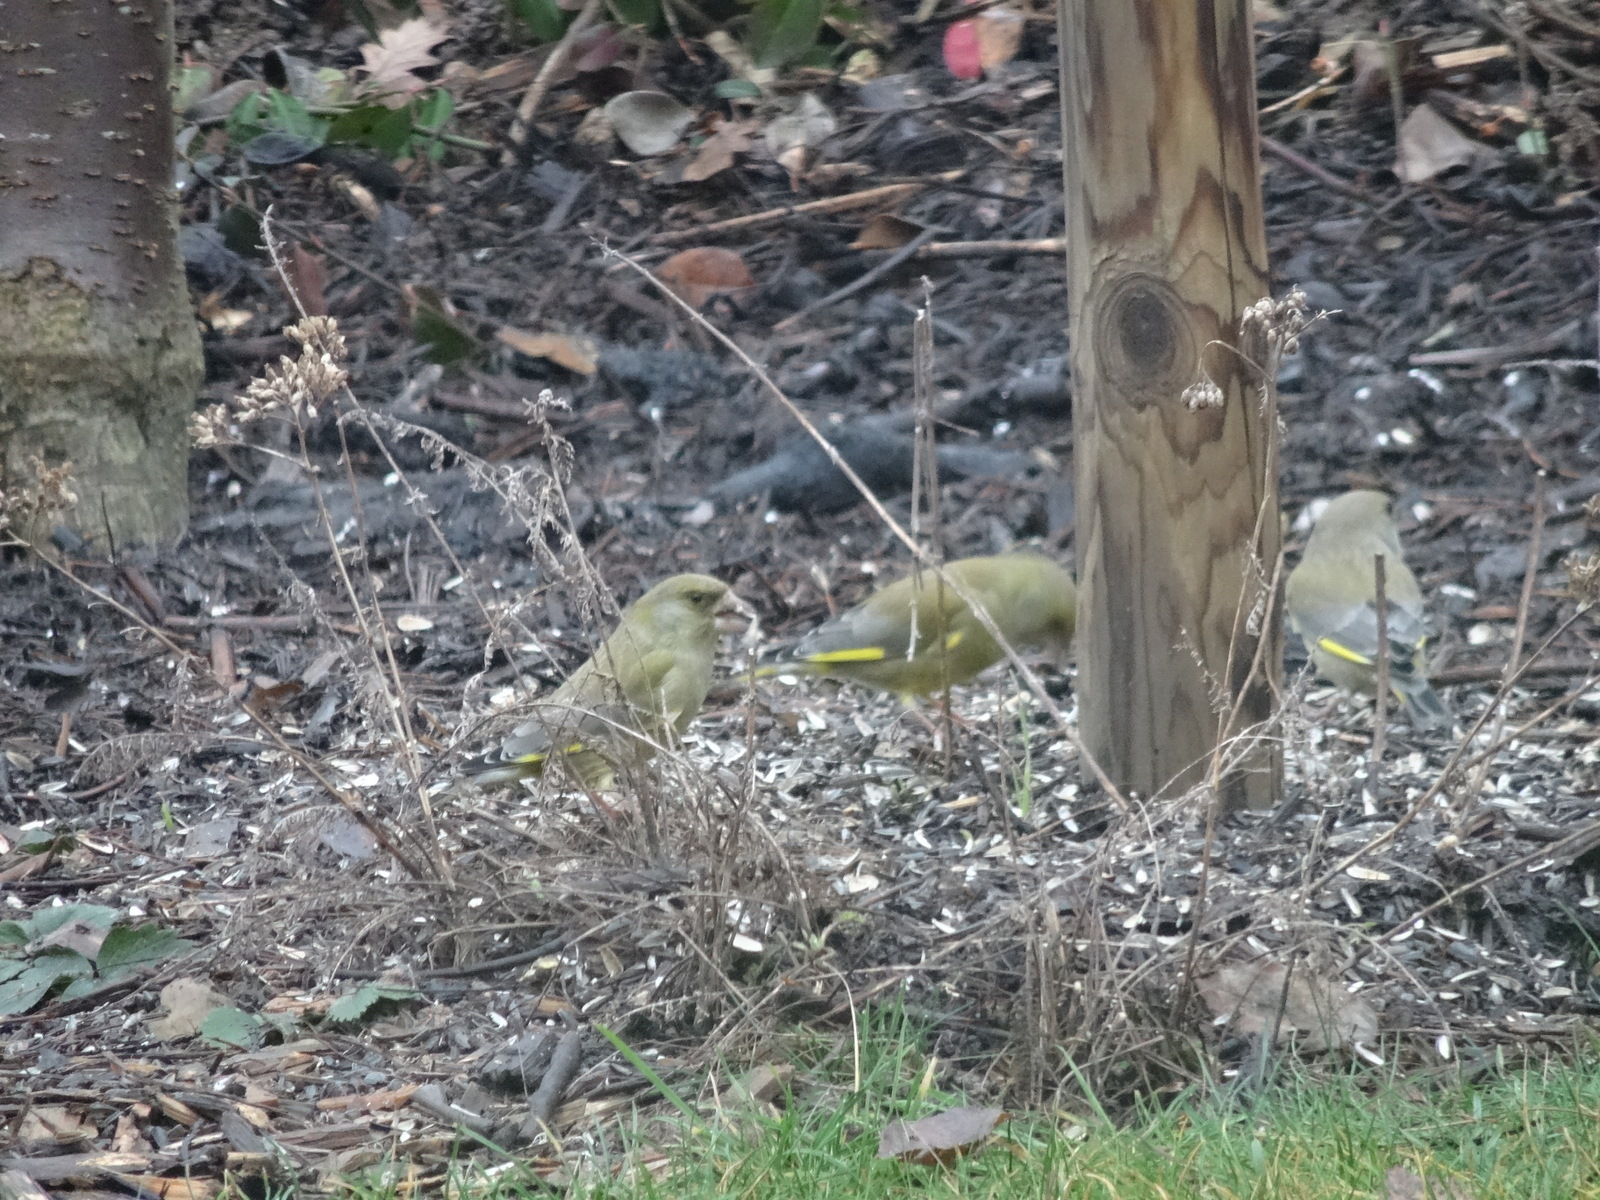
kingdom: Plantae
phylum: Tracheophyta
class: Liliopsida
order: Poales
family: Poaceae
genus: Chloris
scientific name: Chloris chloris
